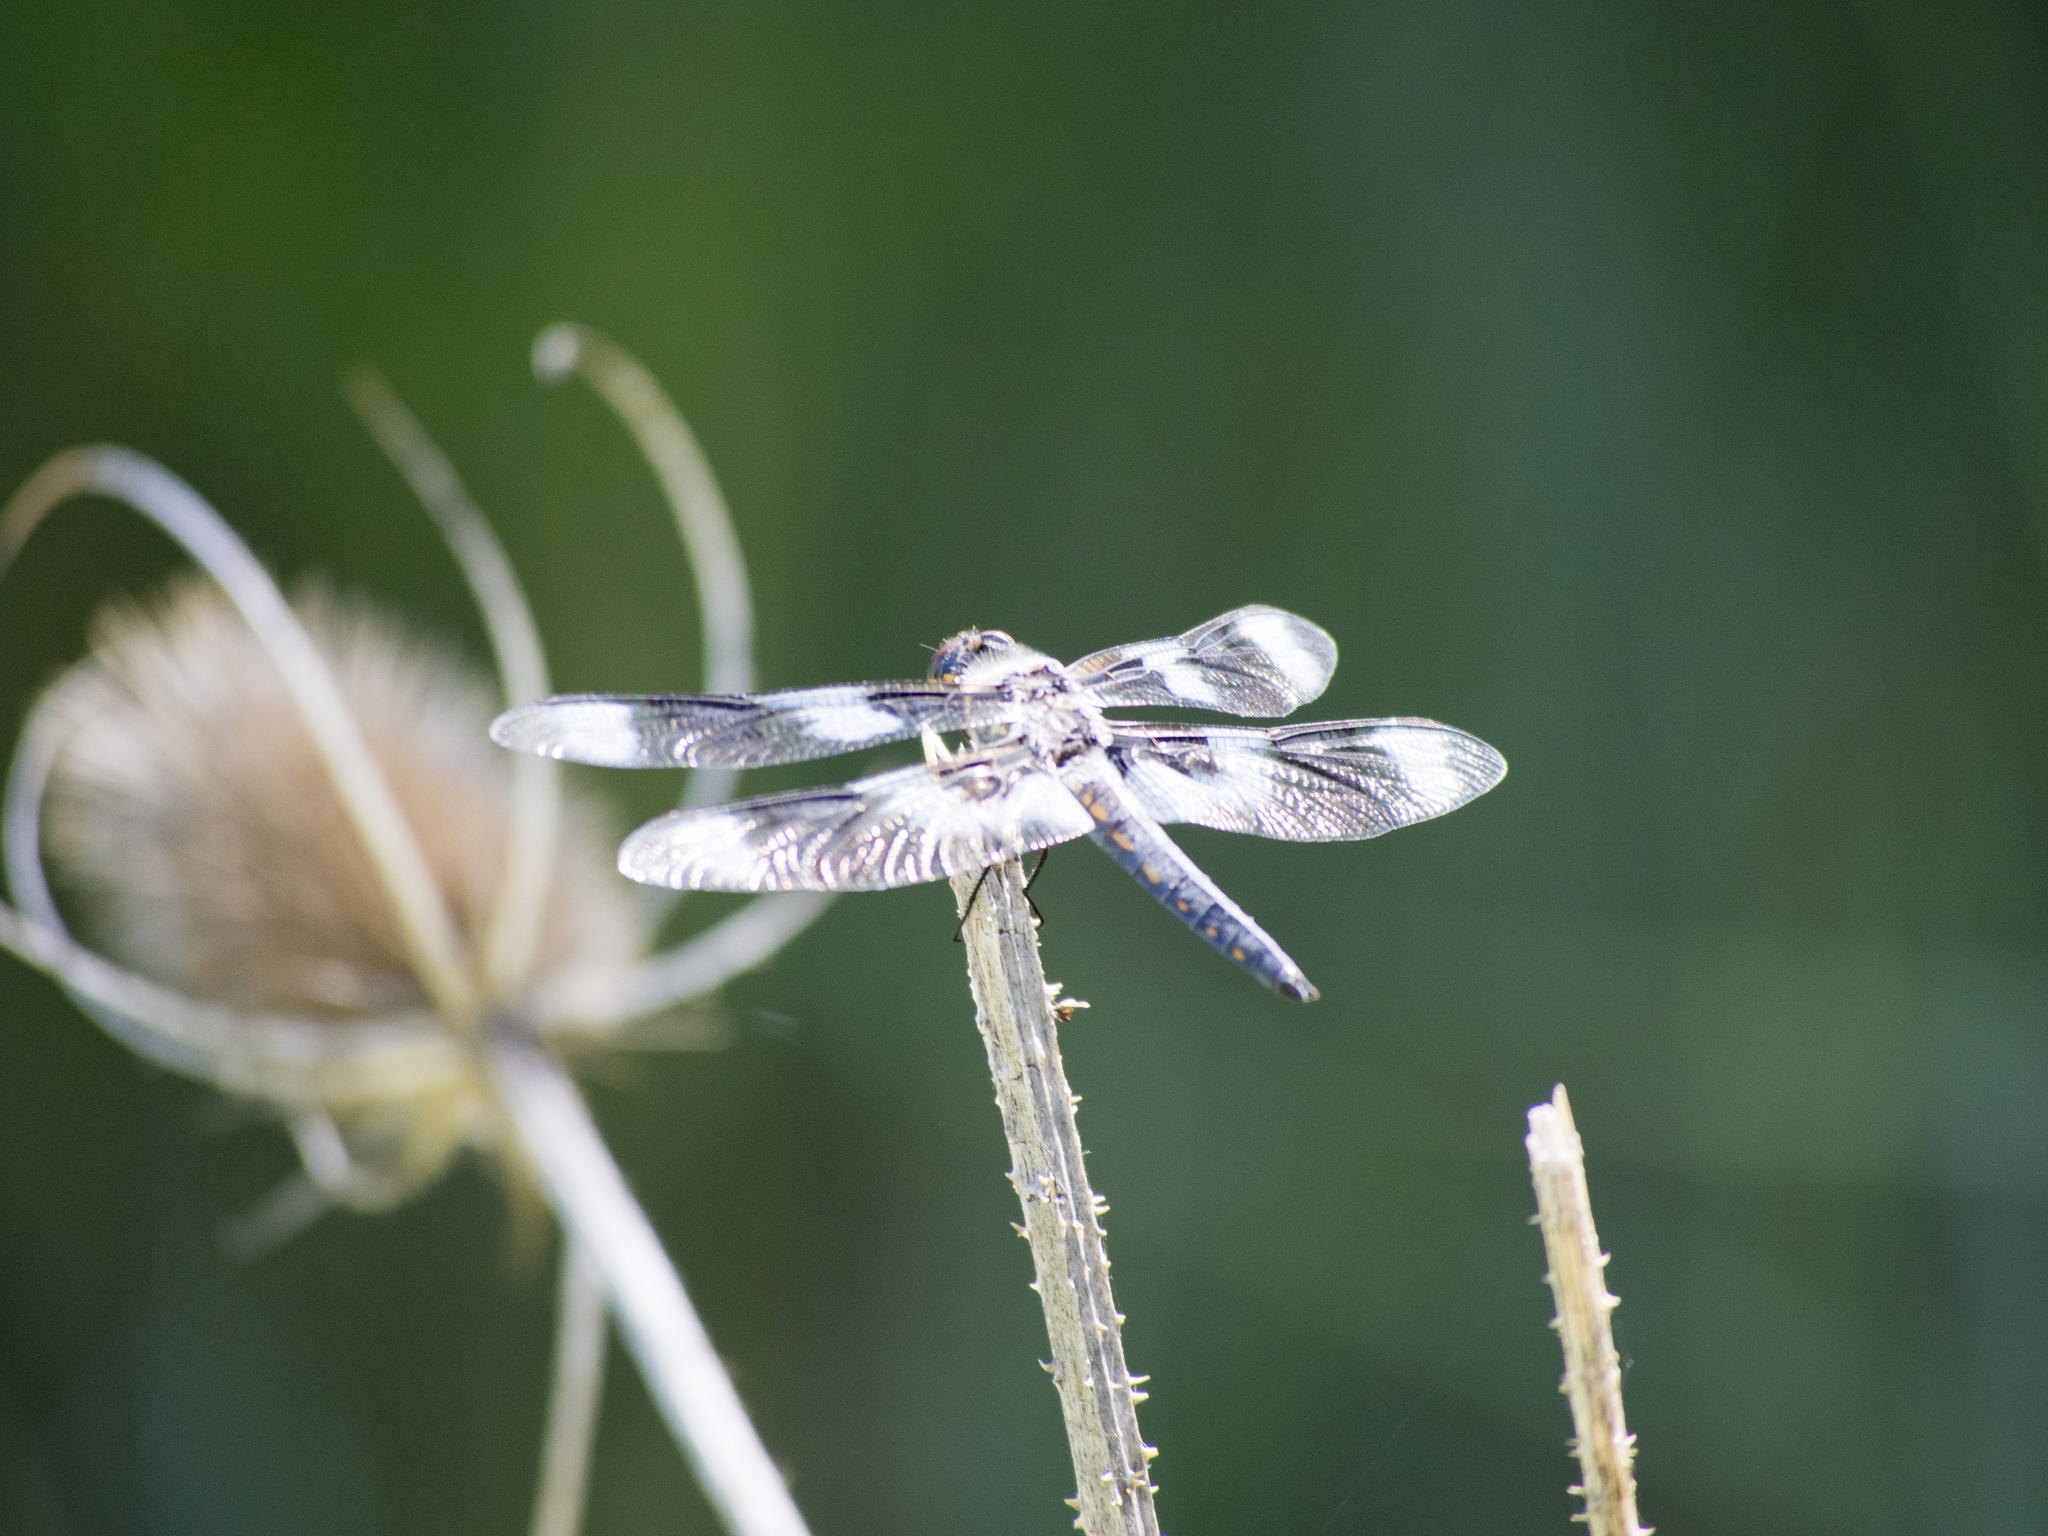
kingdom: Animalia
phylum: Arthropoda
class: Insecta
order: Odonata
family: Libellulidae
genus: Libellula
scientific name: Libellula forensis
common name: Eight-spotted skimmer
